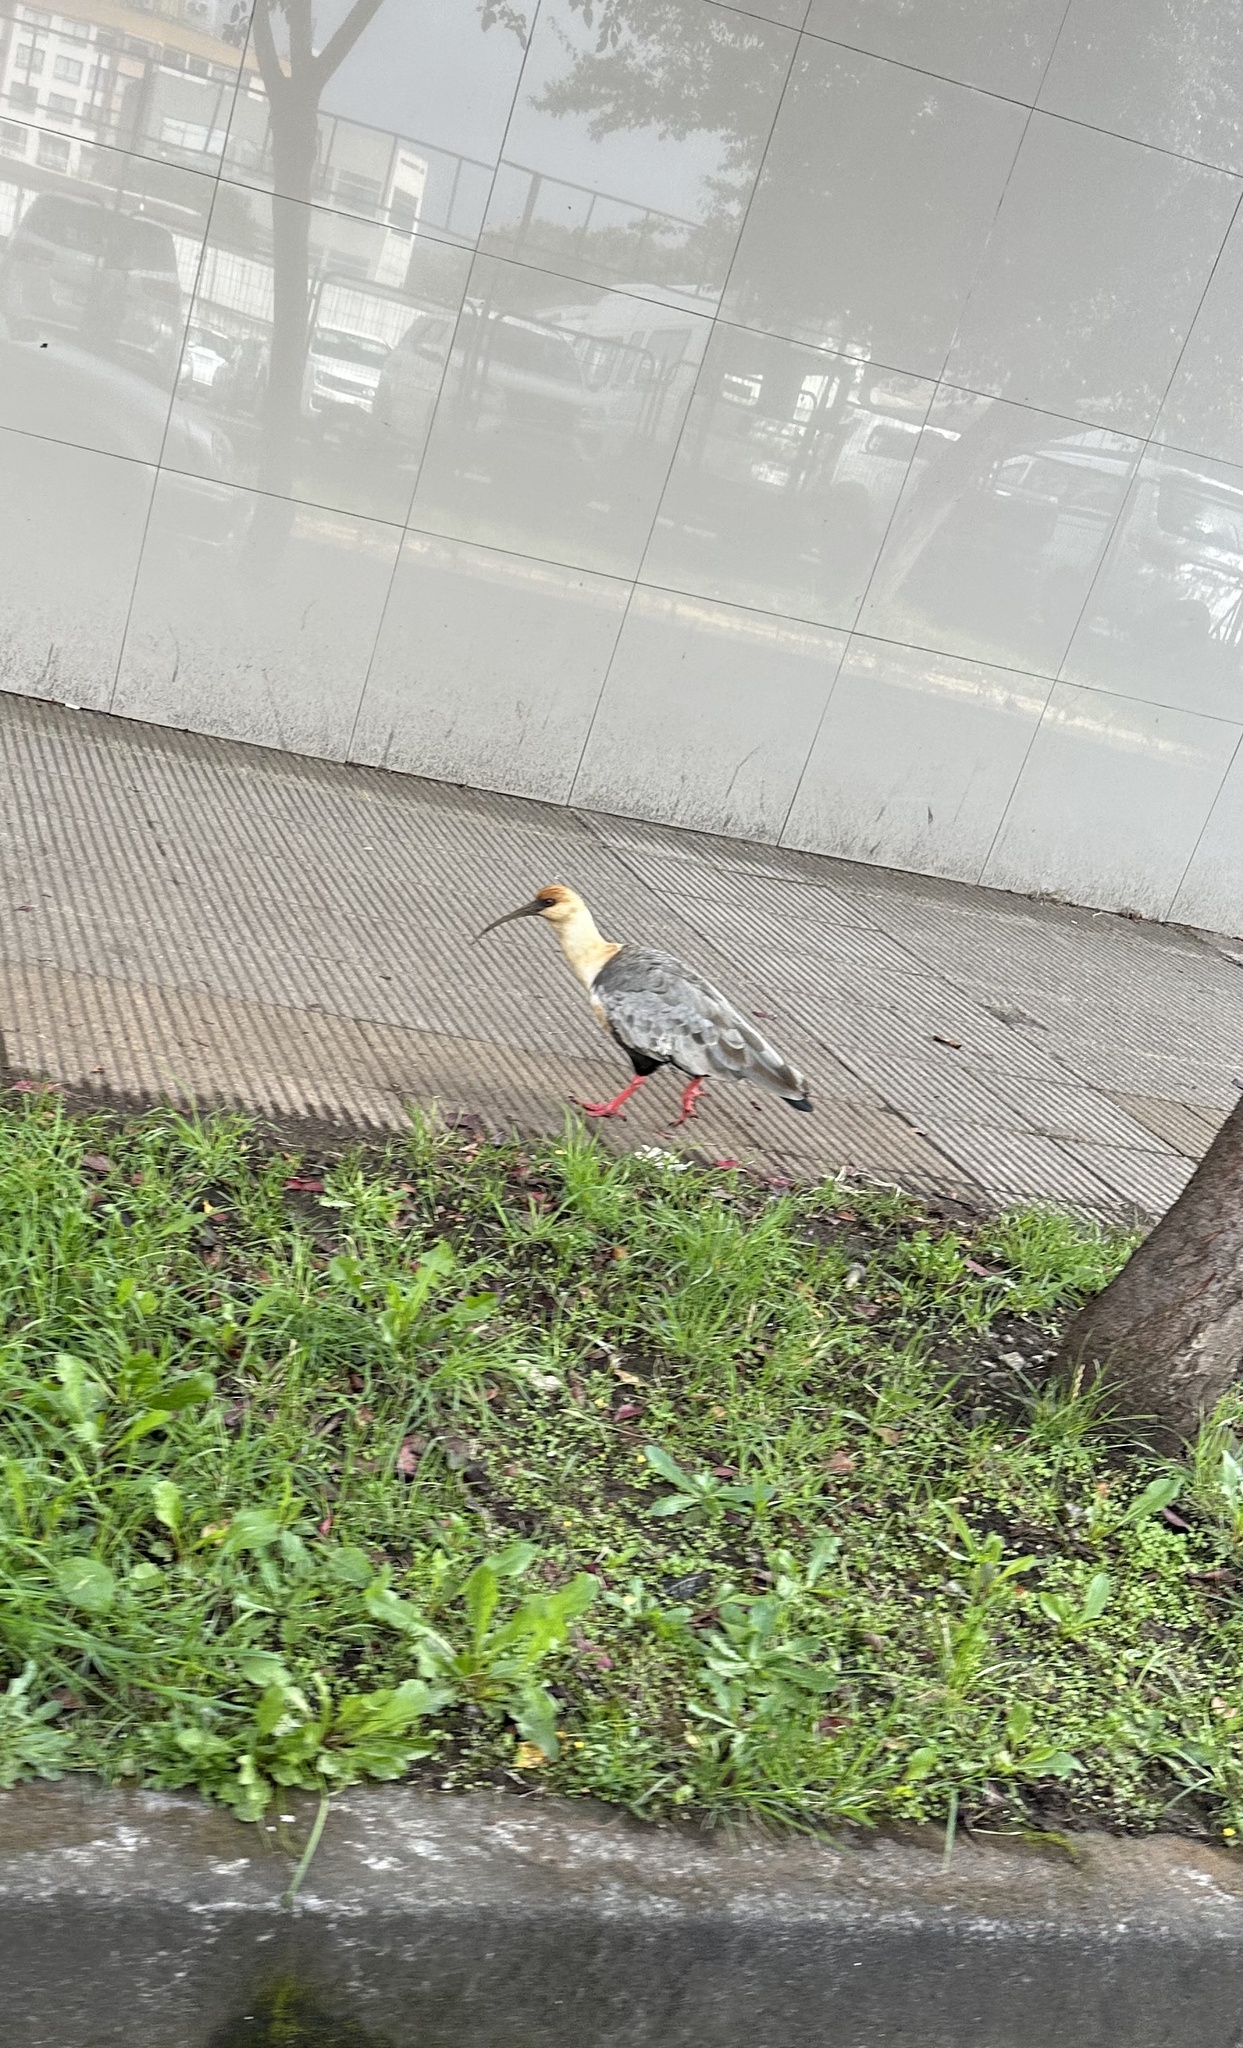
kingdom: Animalia
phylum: Chordata
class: Aves
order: Pelecaniformes
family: Threskiornithidae
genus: Theristicus
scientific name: Theristicus melanopis
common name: Black-faced ibis
